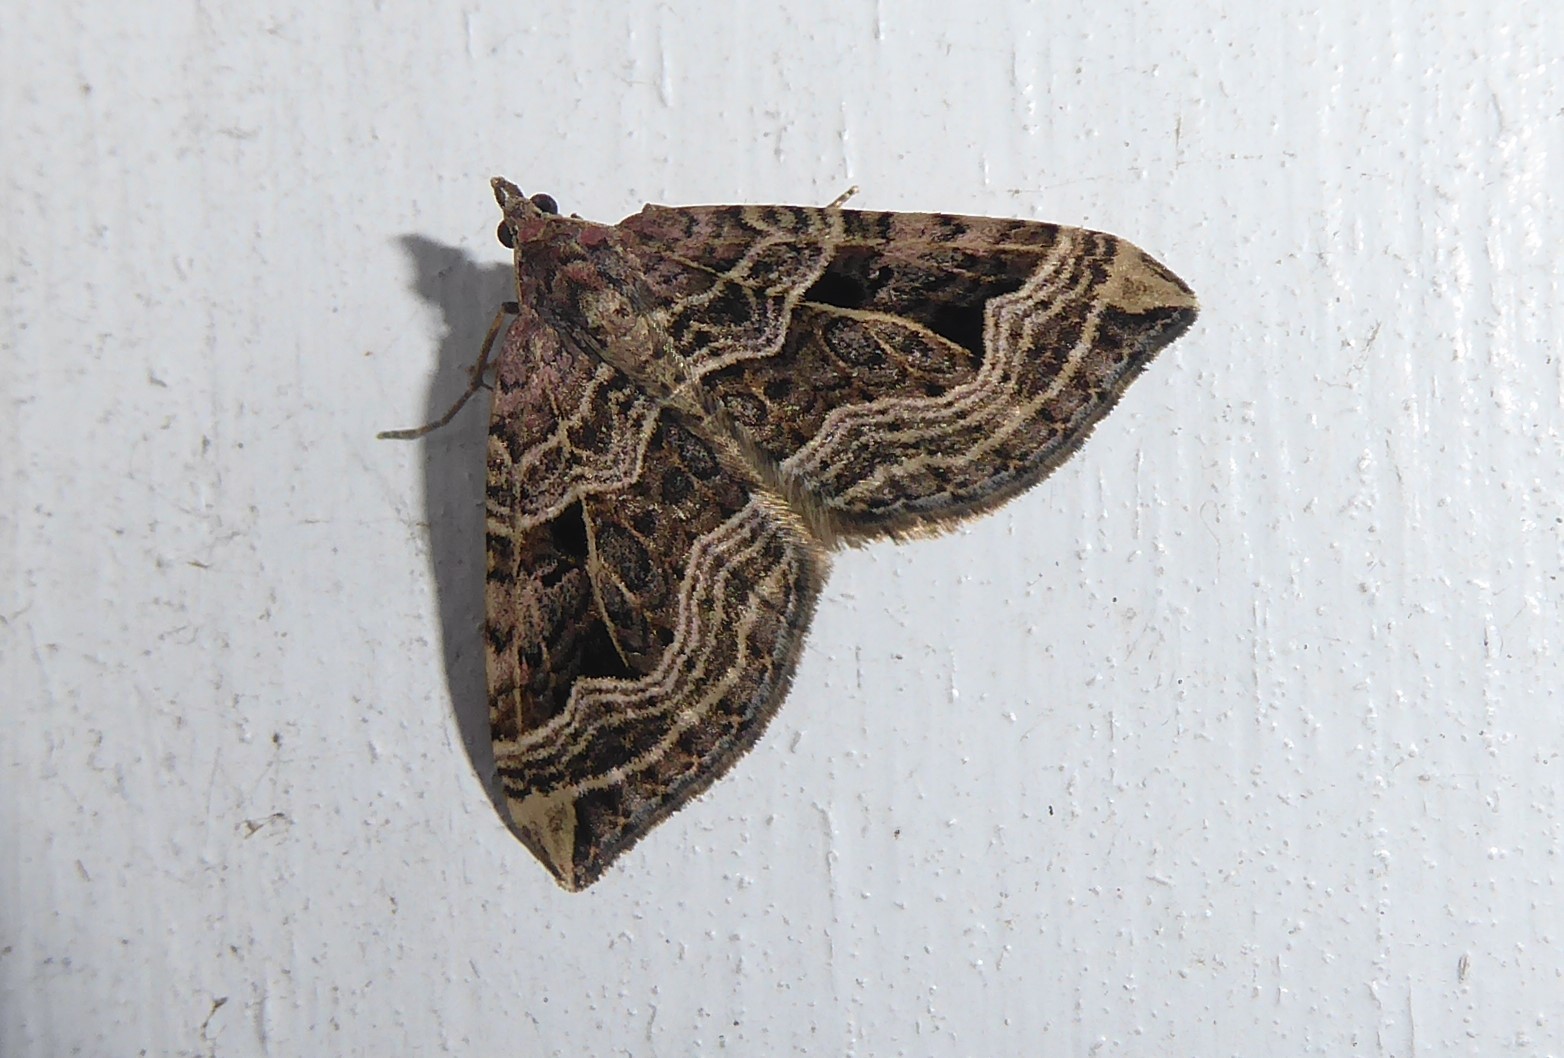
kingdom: Animalia
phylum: Arthropoda
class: Insecta
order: Lepidoptera
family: Geometridae
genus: Xanthorhoe
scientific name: Xanthorhoe semifissata
